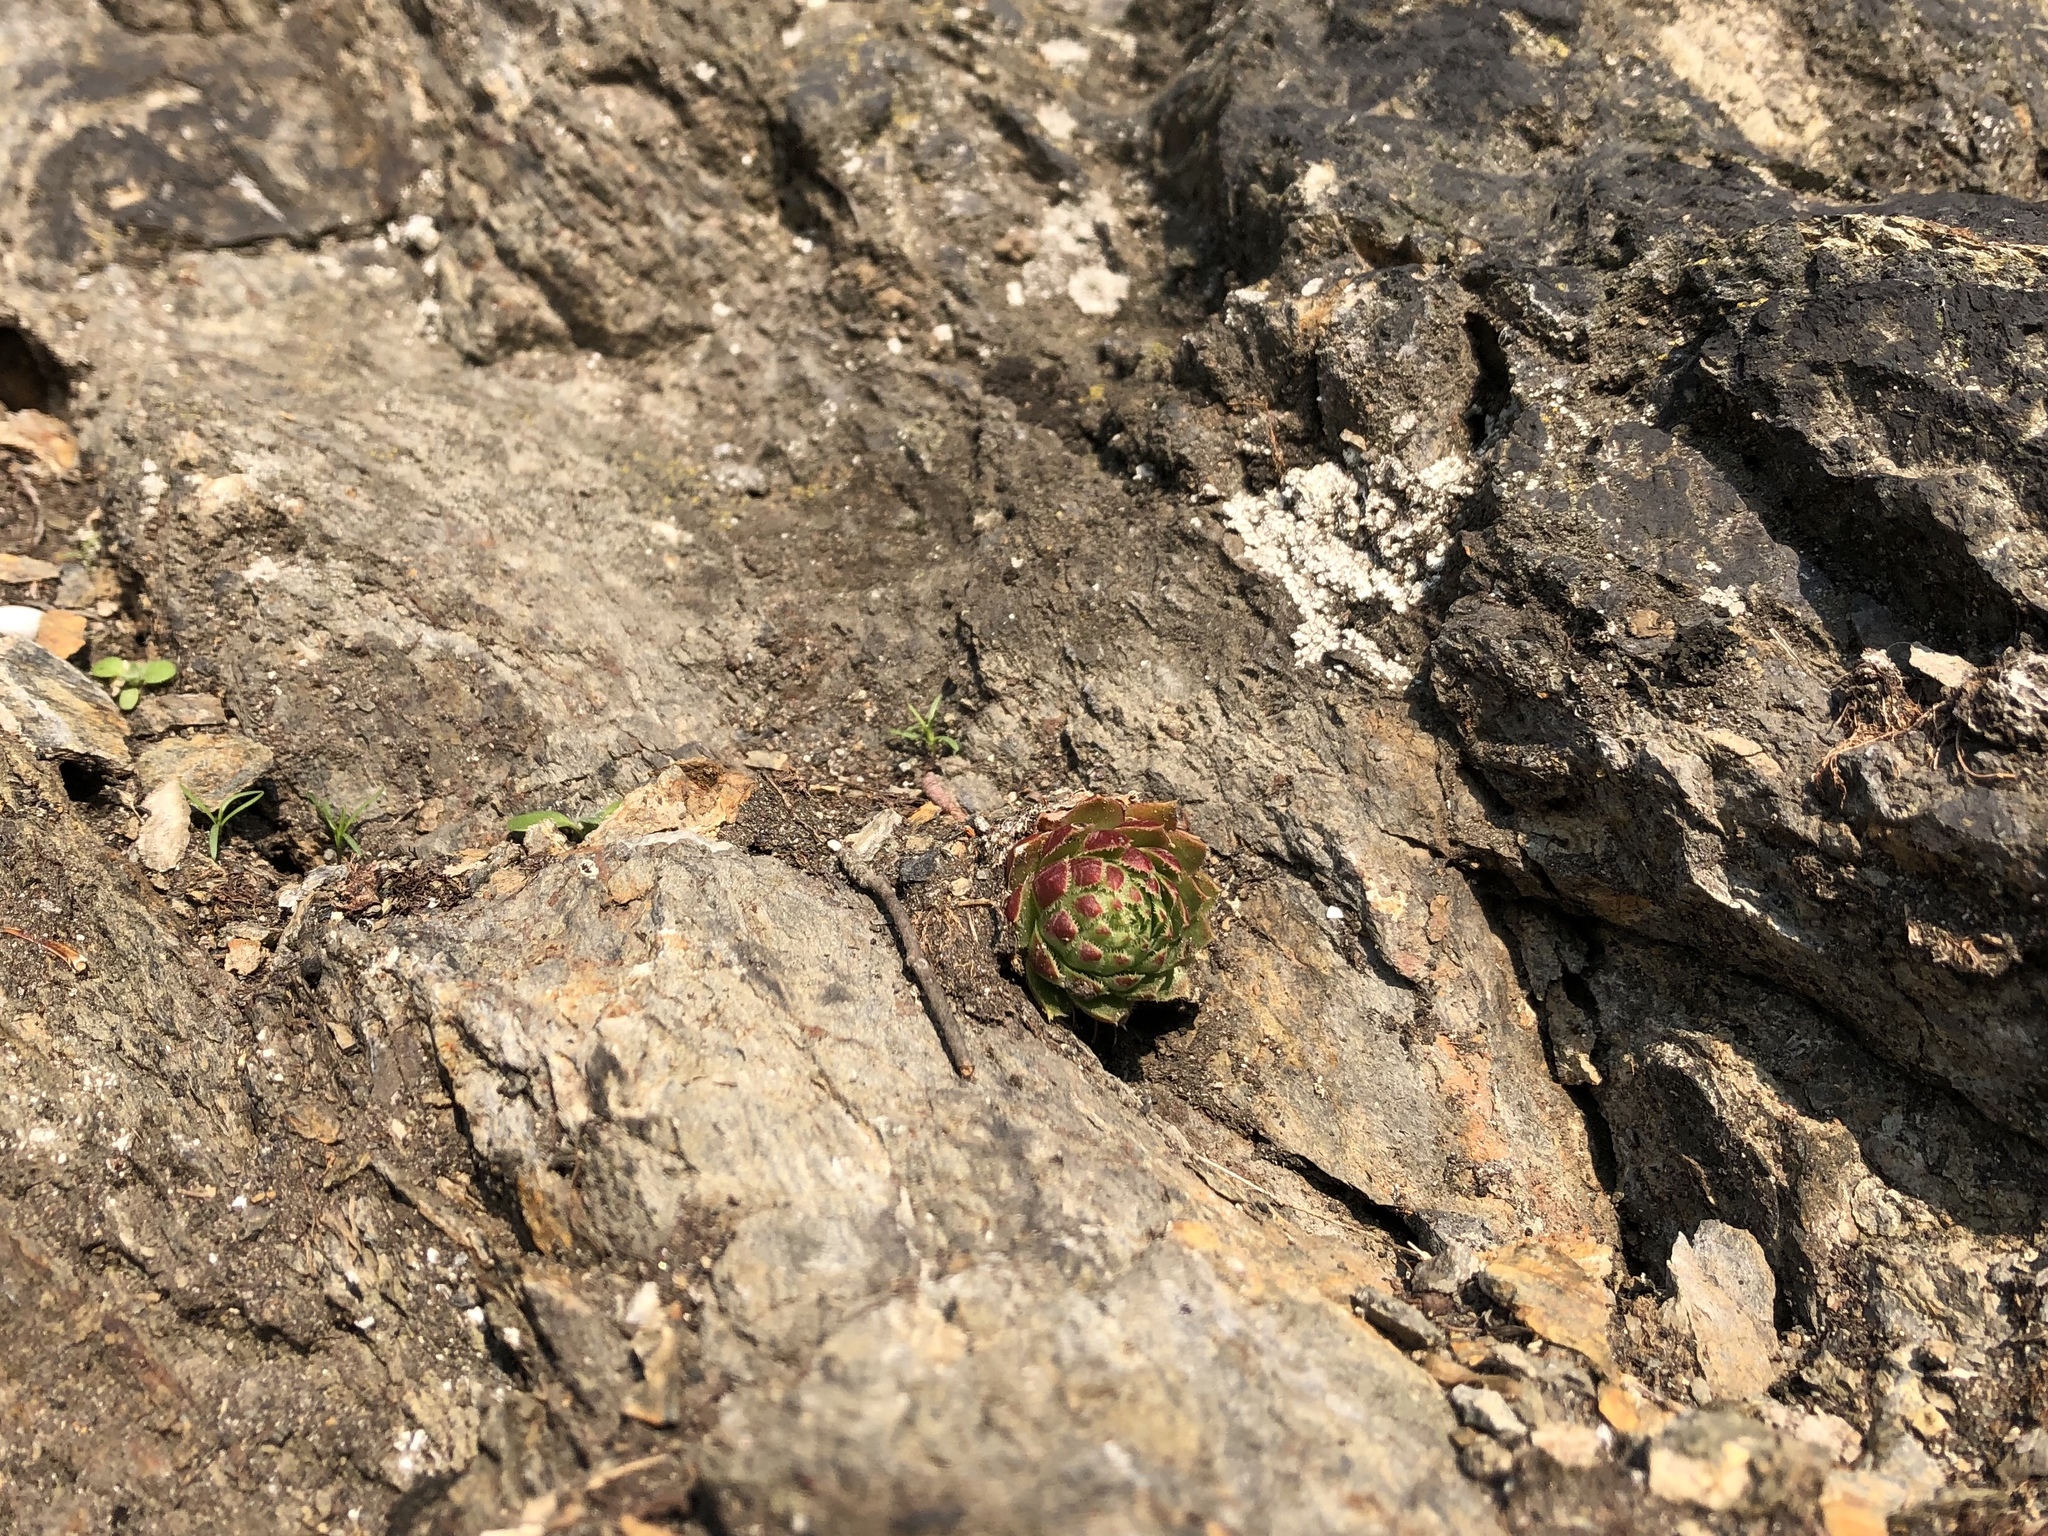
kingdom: Plantae
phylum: Tracheophyta
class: Magnoliopsida
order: Saxifragales
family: Crassulaceae
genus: Sempervivum
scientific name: Sempervivum globiferum
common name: Rolling hen-and-chicks
